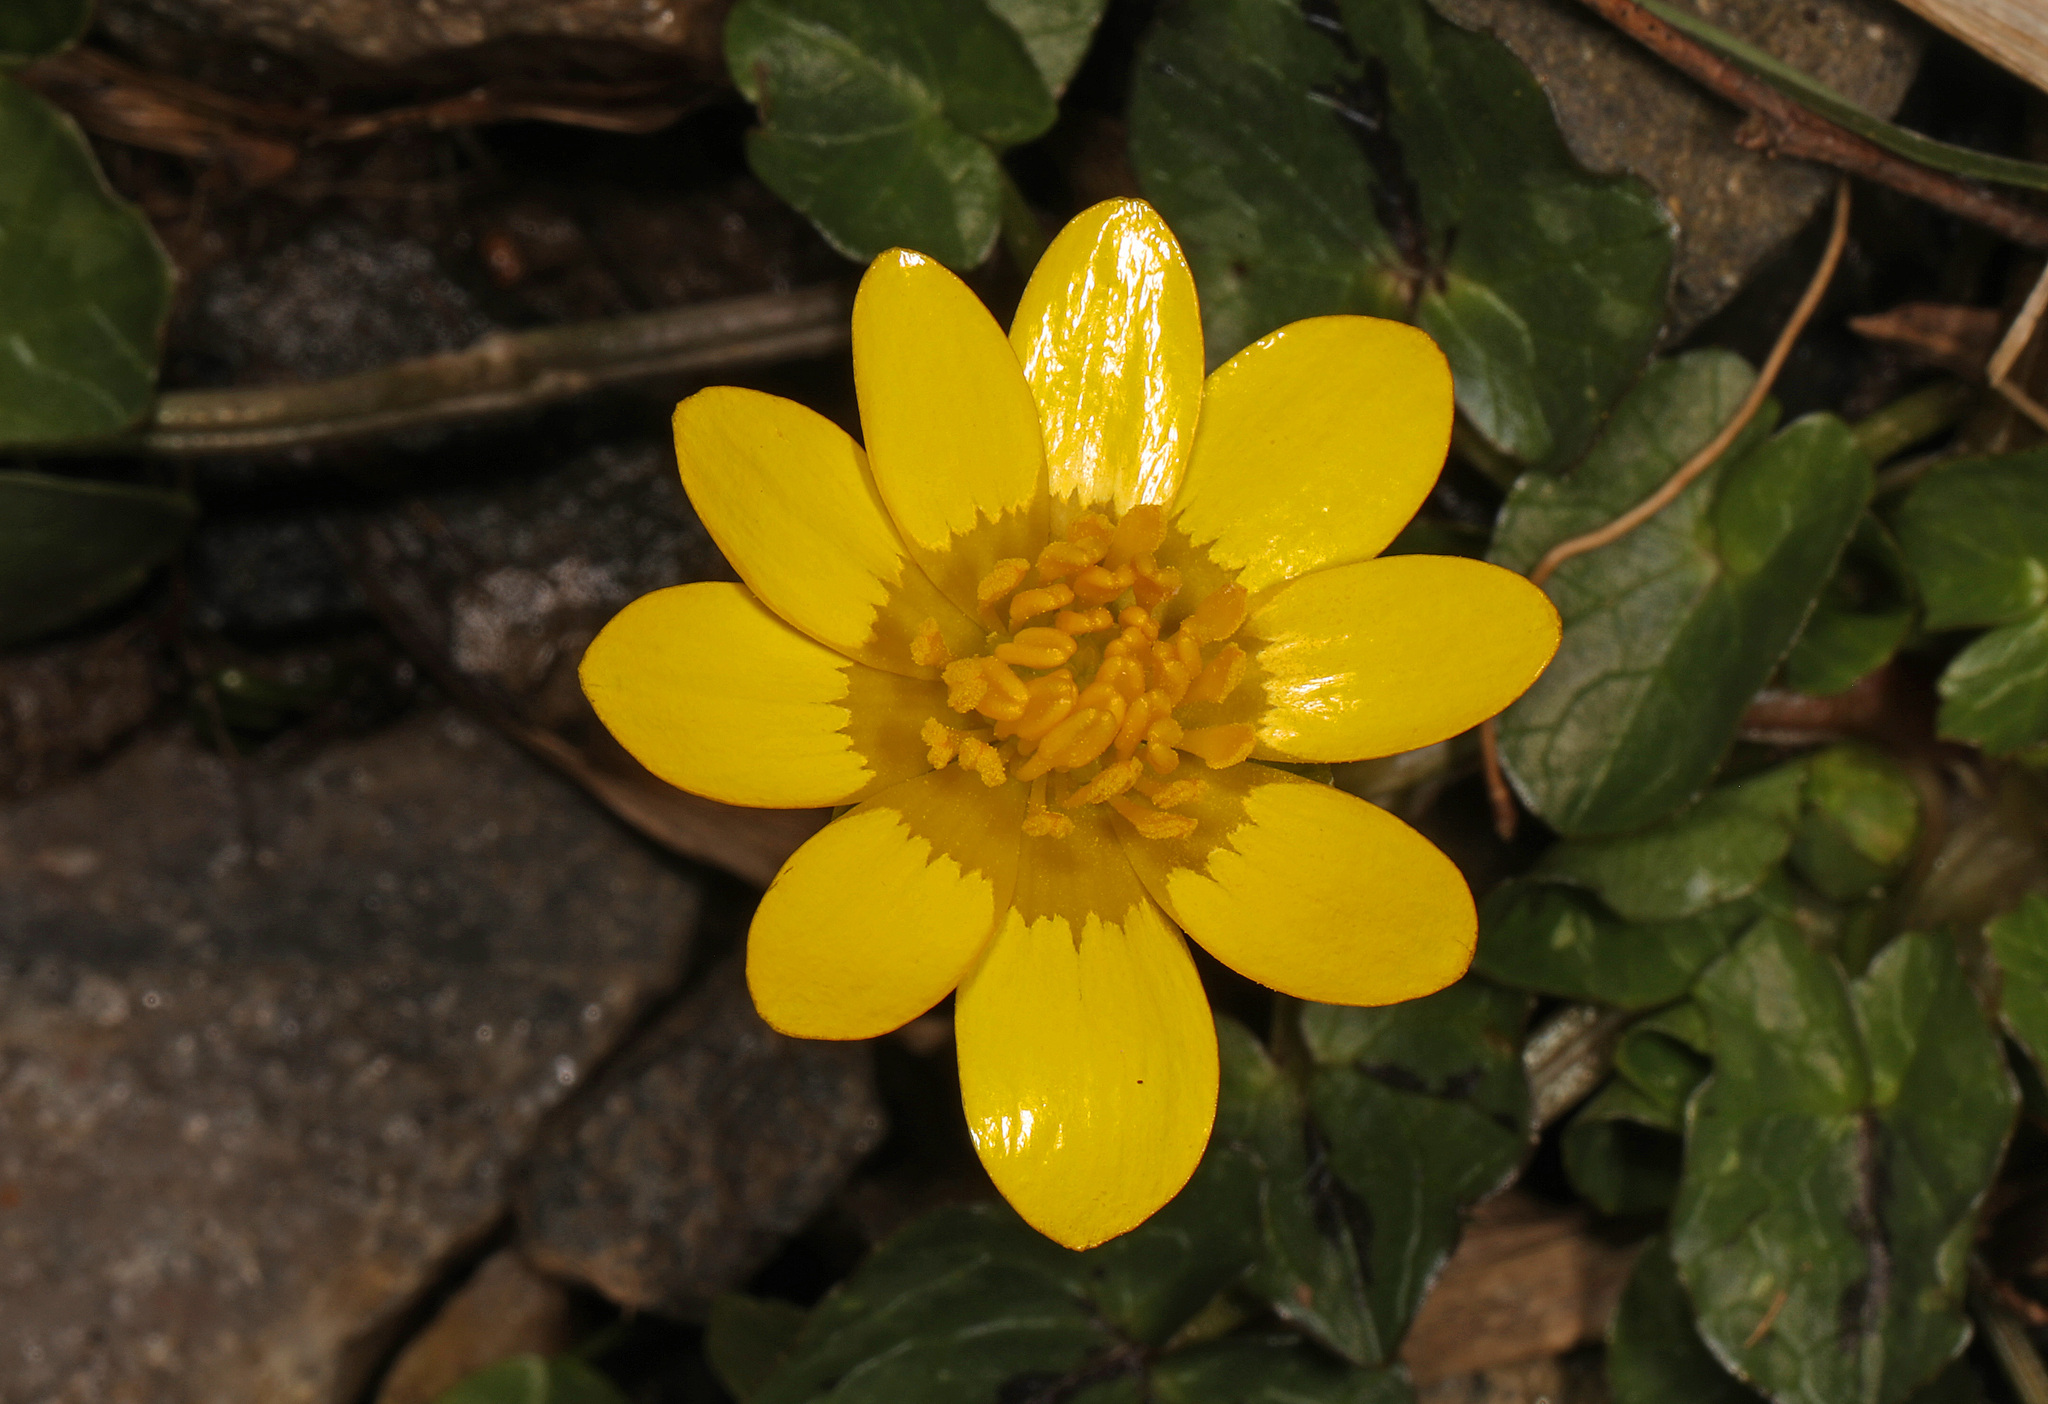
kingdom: Plantae
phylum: Tracheophyta
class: Magnoliopsida
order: Ranunculales
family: Ranunculaceae
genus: Ficaria
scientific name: Ficaria verna
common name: Lesser celandine
